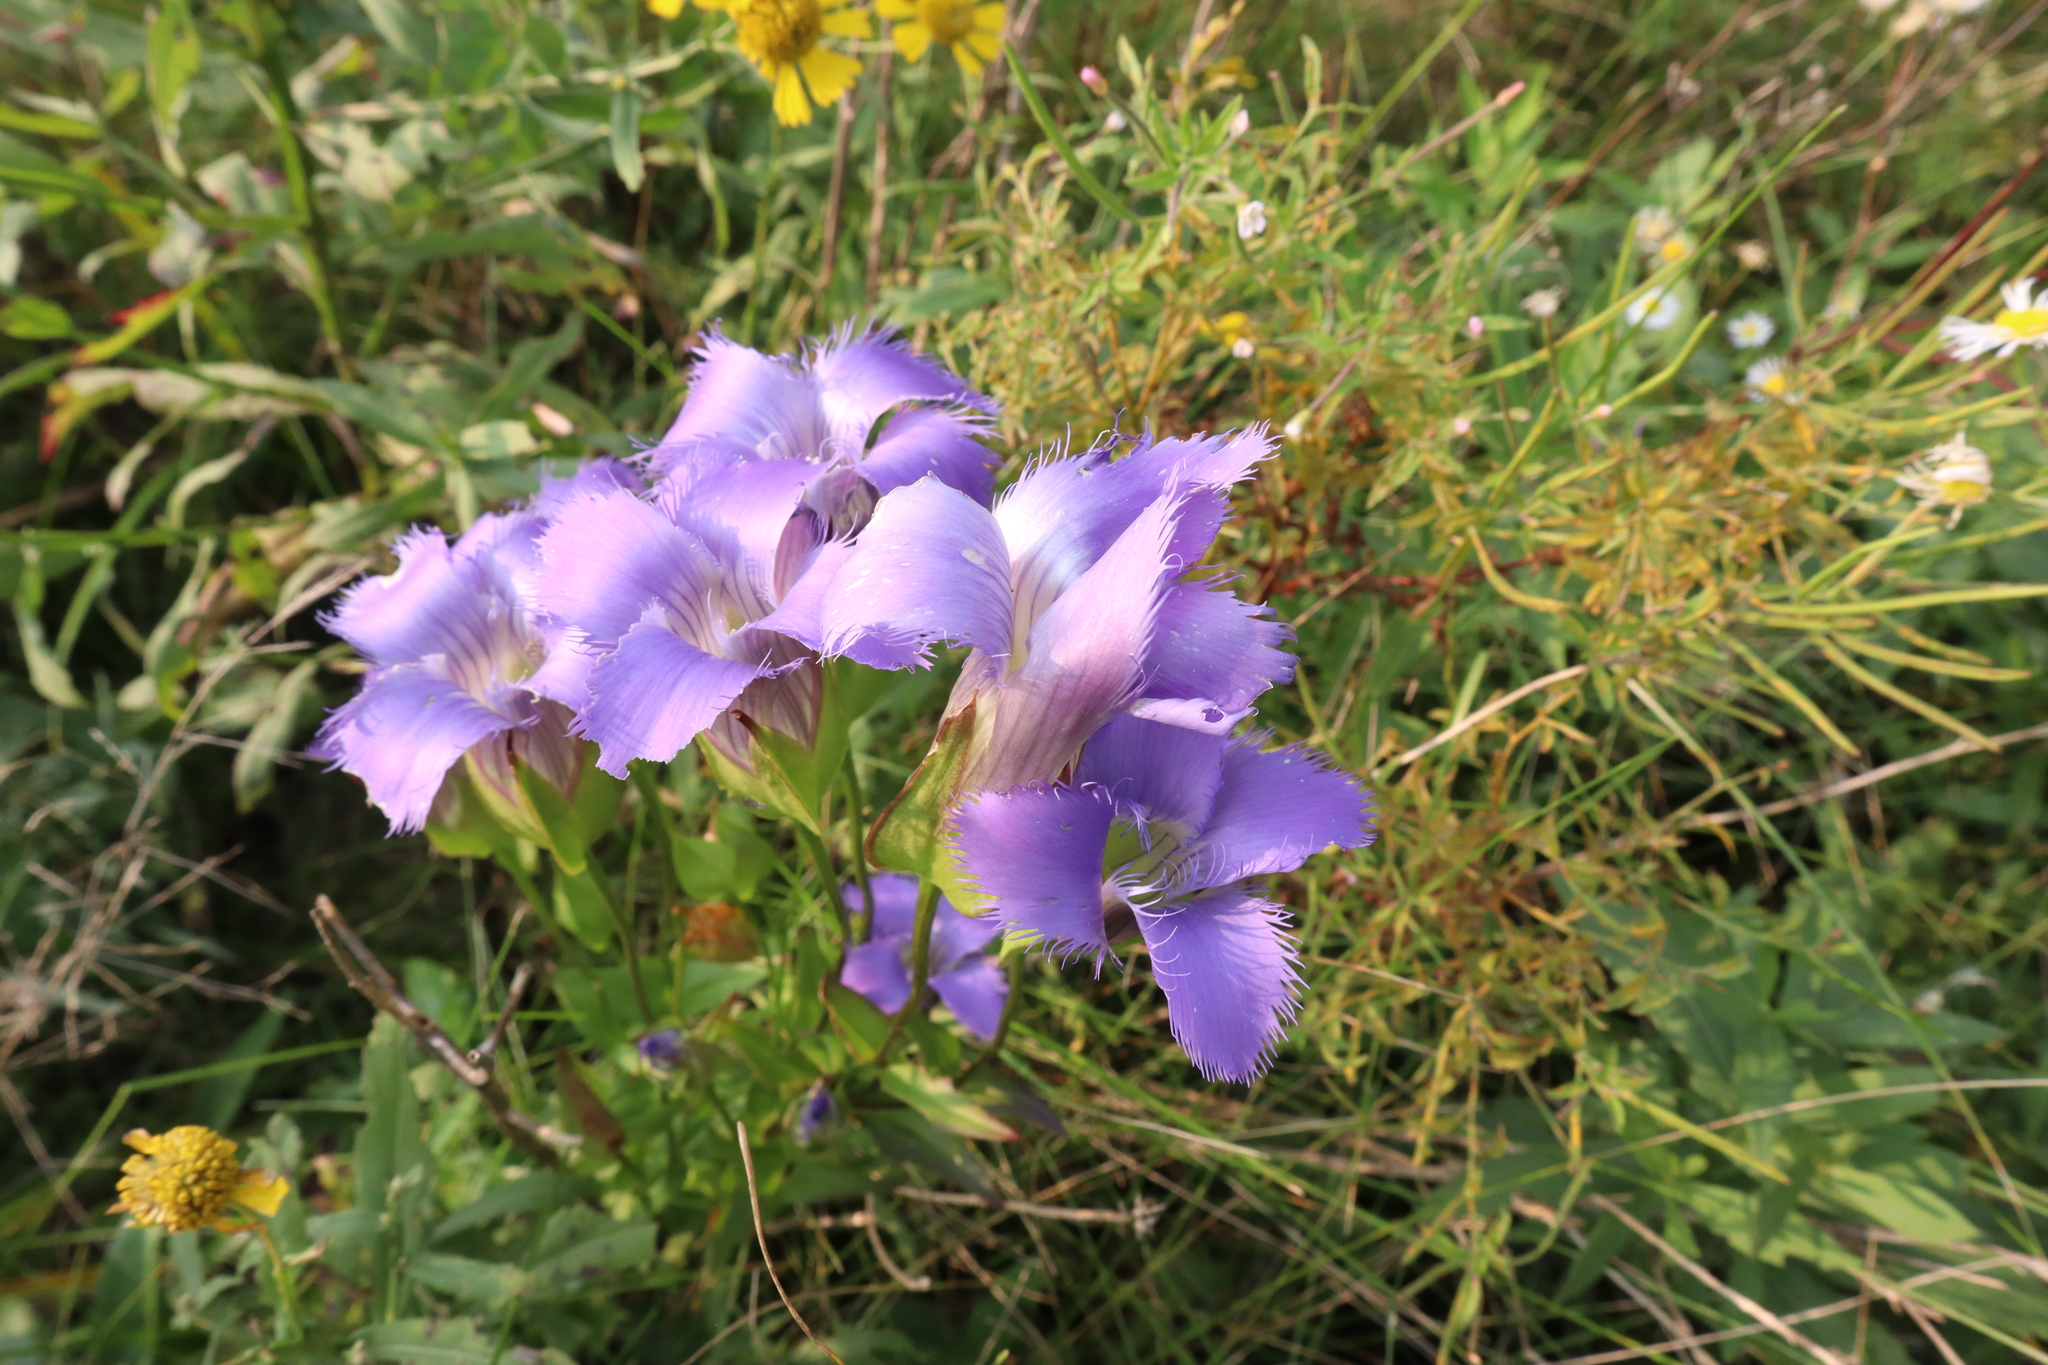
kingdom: Plantae
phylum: Tracheophyta
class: Magnoliopsida
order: Gentianales
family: Gentianaceae
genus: Gentianopsis
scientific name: Gentianopsis crinita
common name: Fringed-gentian
